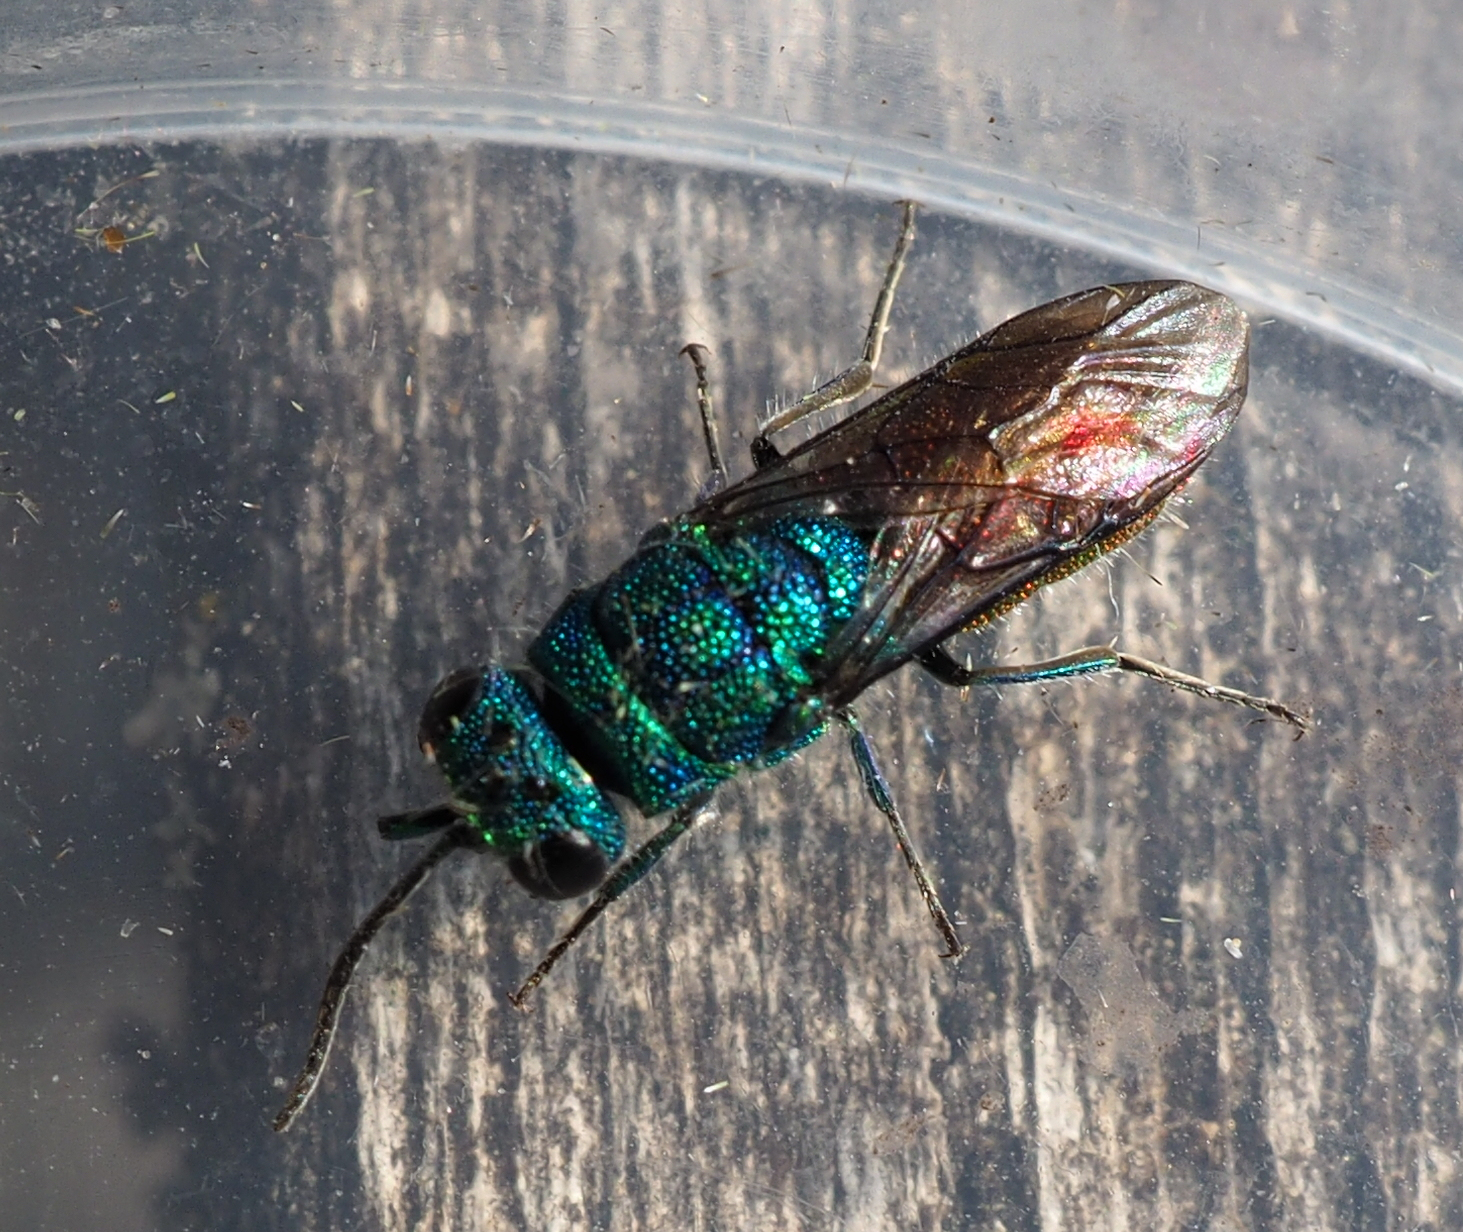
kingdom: Animalia
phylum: Arthropoda
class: Insecta
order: Hymenoptera
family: Chrysididae
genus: Chrysis
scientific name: Chrysis terminata
